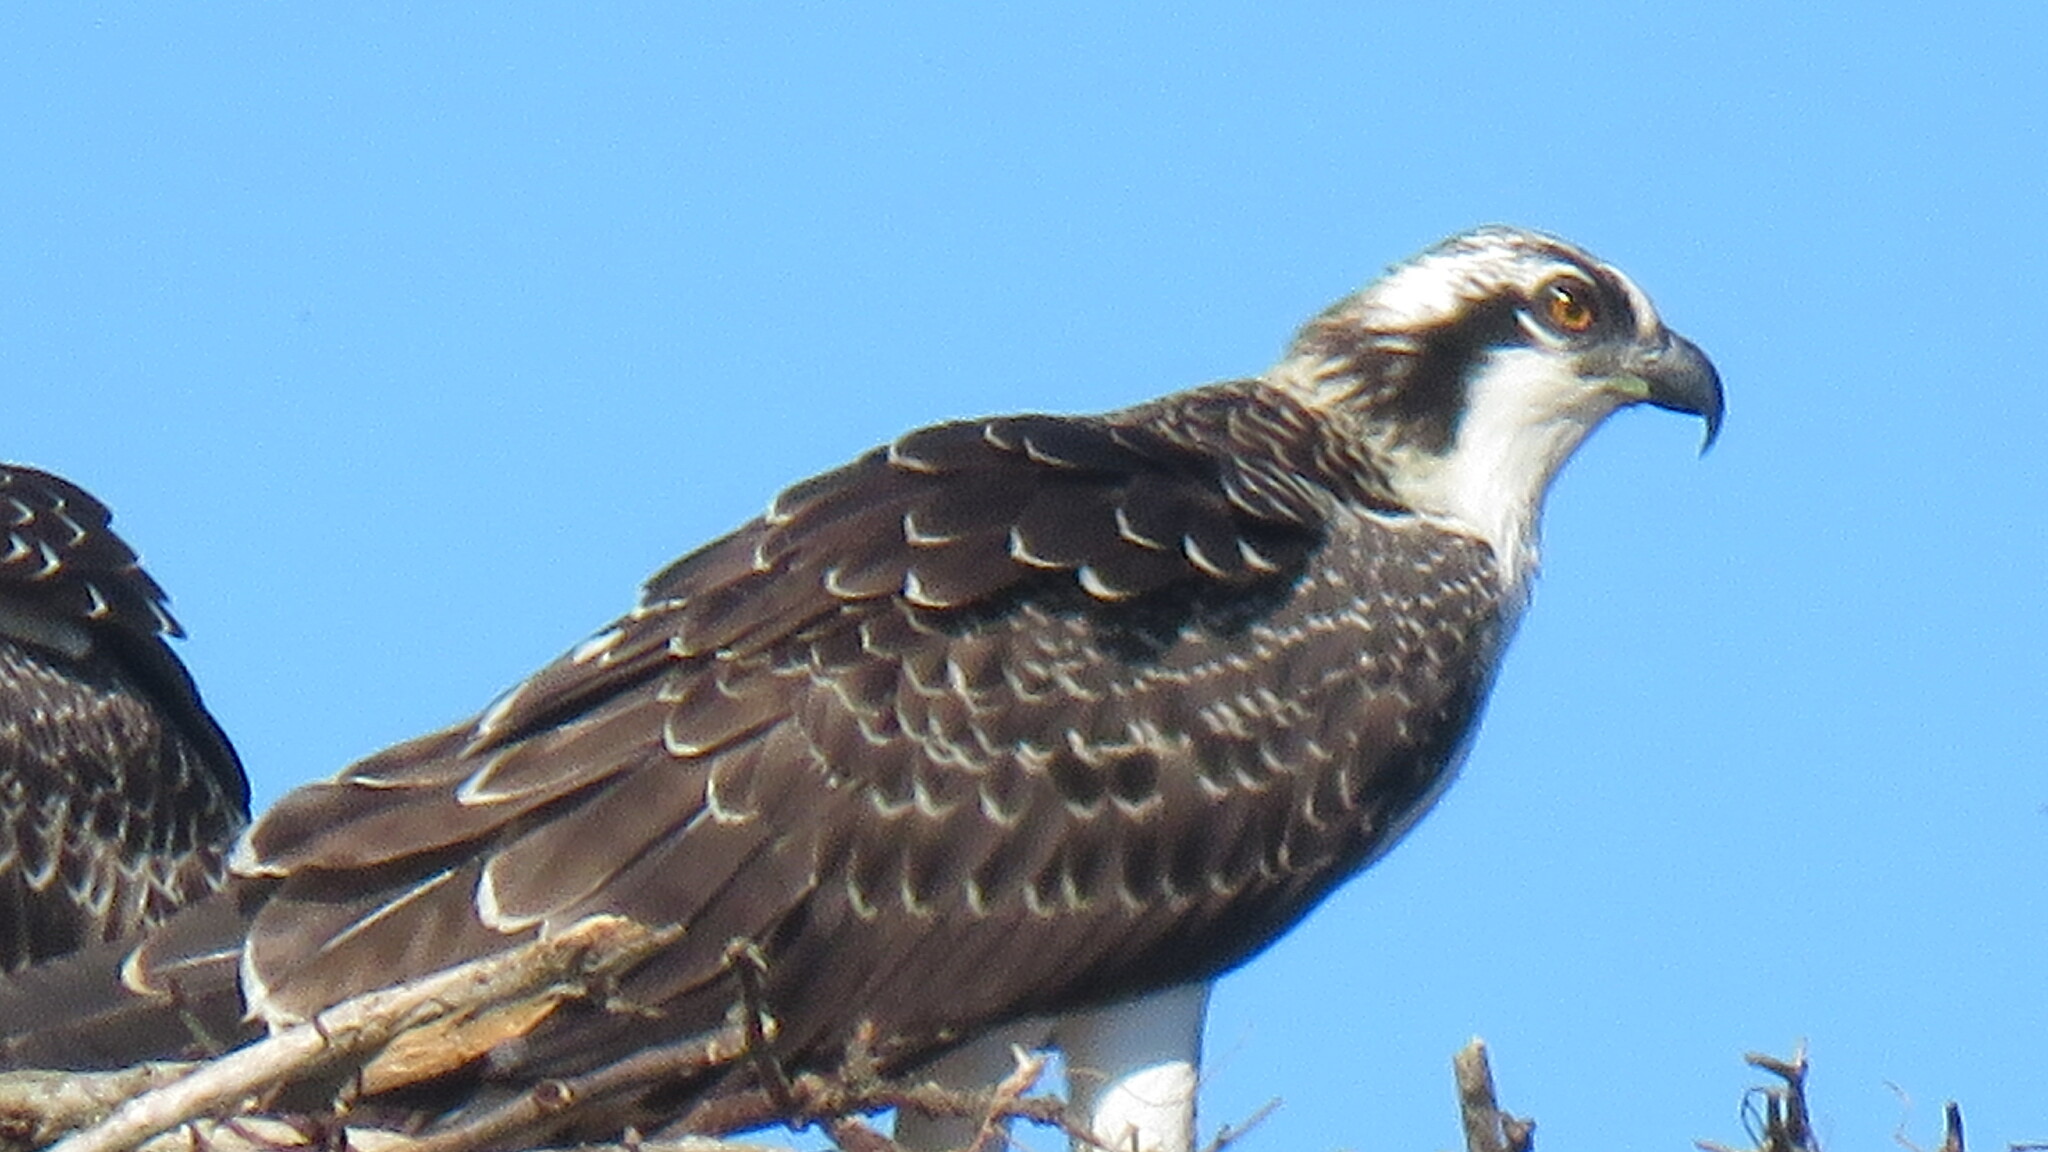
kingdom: Animalia
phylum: Chordata
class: Aves
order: Accipitriformes
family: Pandionidae
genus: Pandion
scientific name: Pandion haliaetus
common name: Osprey
